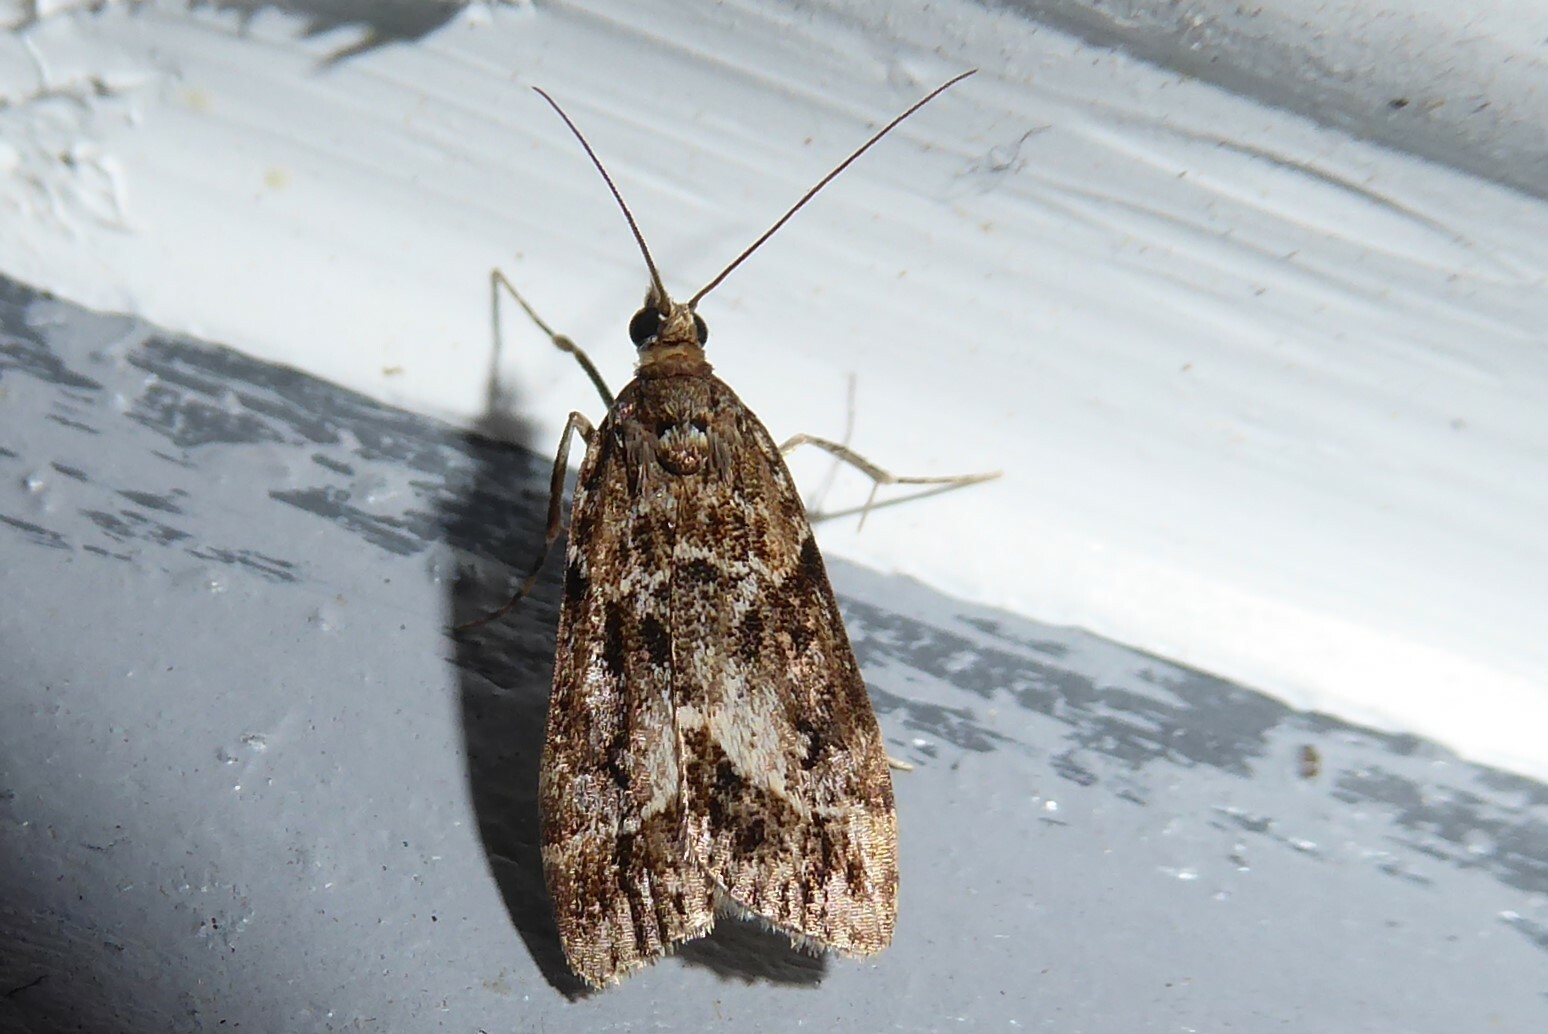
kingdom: Animalia
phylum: Arthropoda
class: Insecta
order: Lepidoptera
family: Crambidae
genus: Eudonia
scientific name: Eudonia legnota
